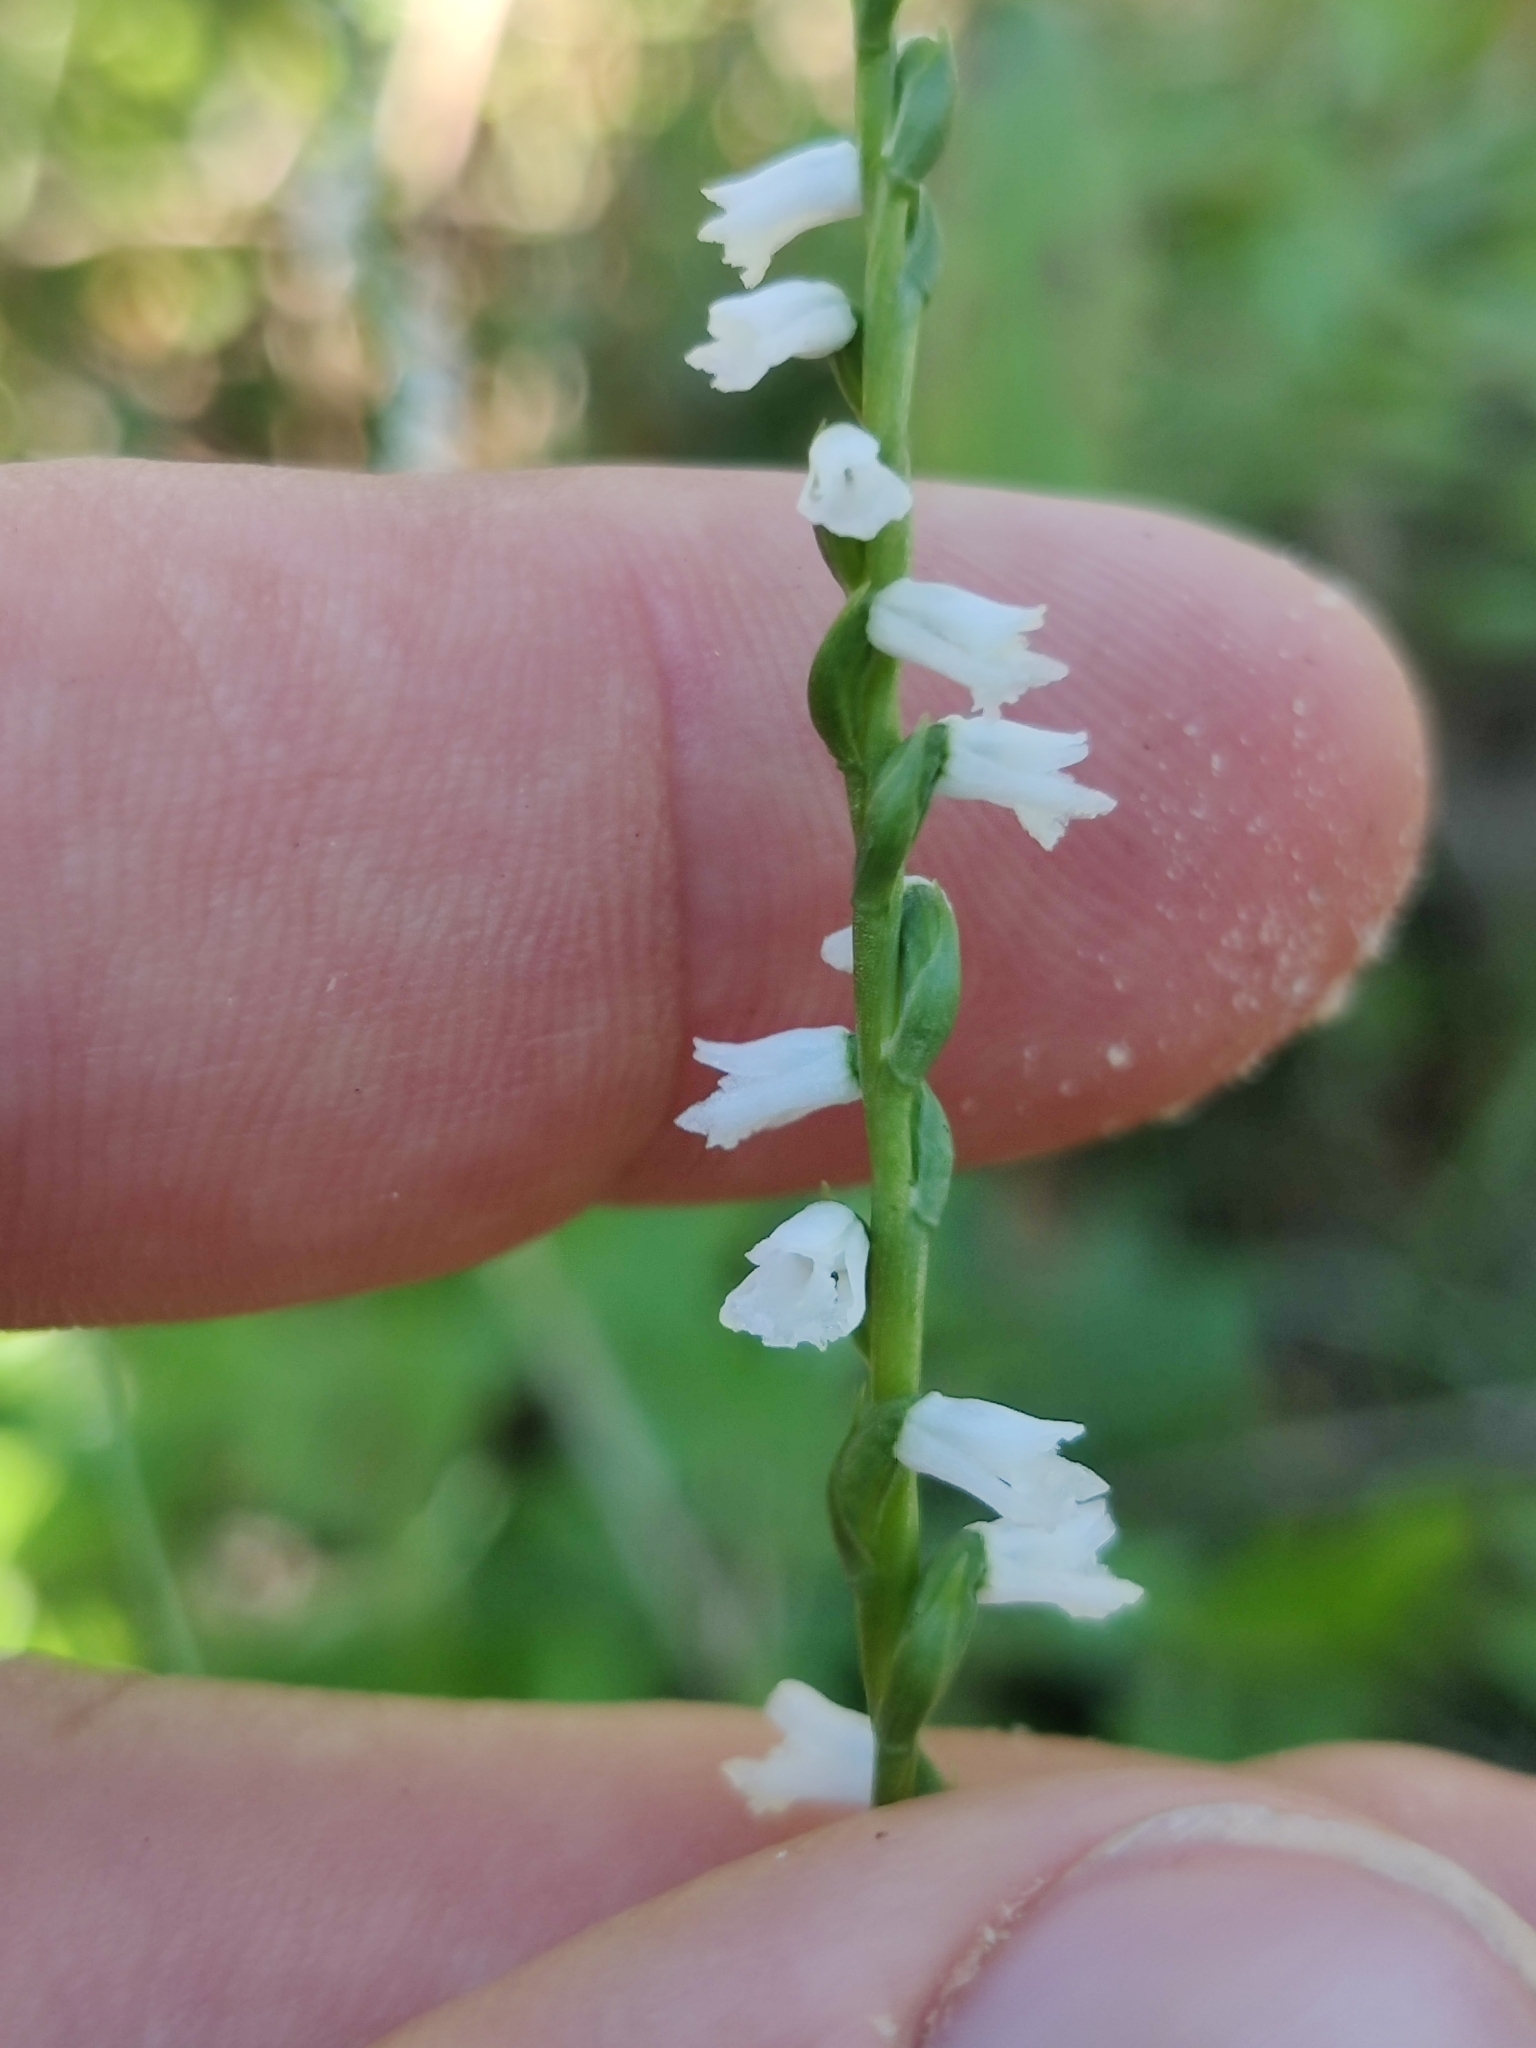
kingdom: Plantae
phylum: Tracheophyta
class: Liliopsida
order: Asparagales
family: Orchidaceae
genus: Spiranthes
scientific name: Spiranthes tuberosa
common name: Little ladies'-tresses
